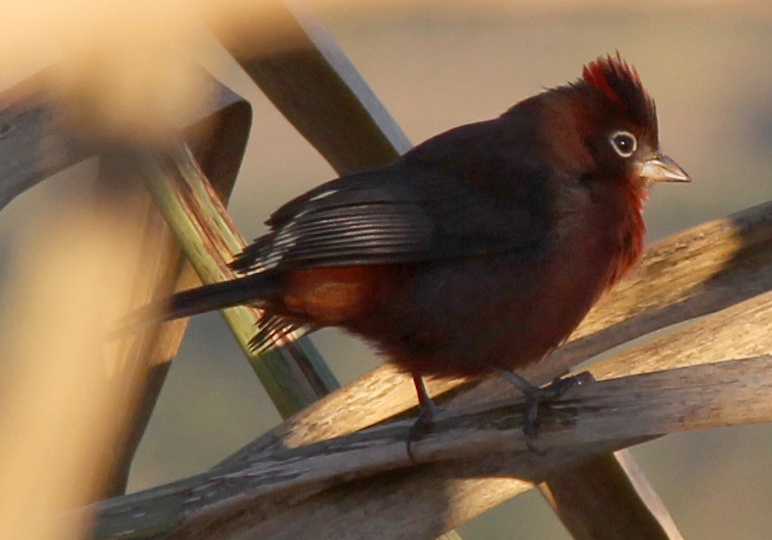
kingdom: Animalia
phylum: Chordata
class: Aves
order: Passeriformes
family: Thraupidae
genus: Coryphospingus
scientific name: Coryphospingus cucullatus
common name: Red pileated finch
